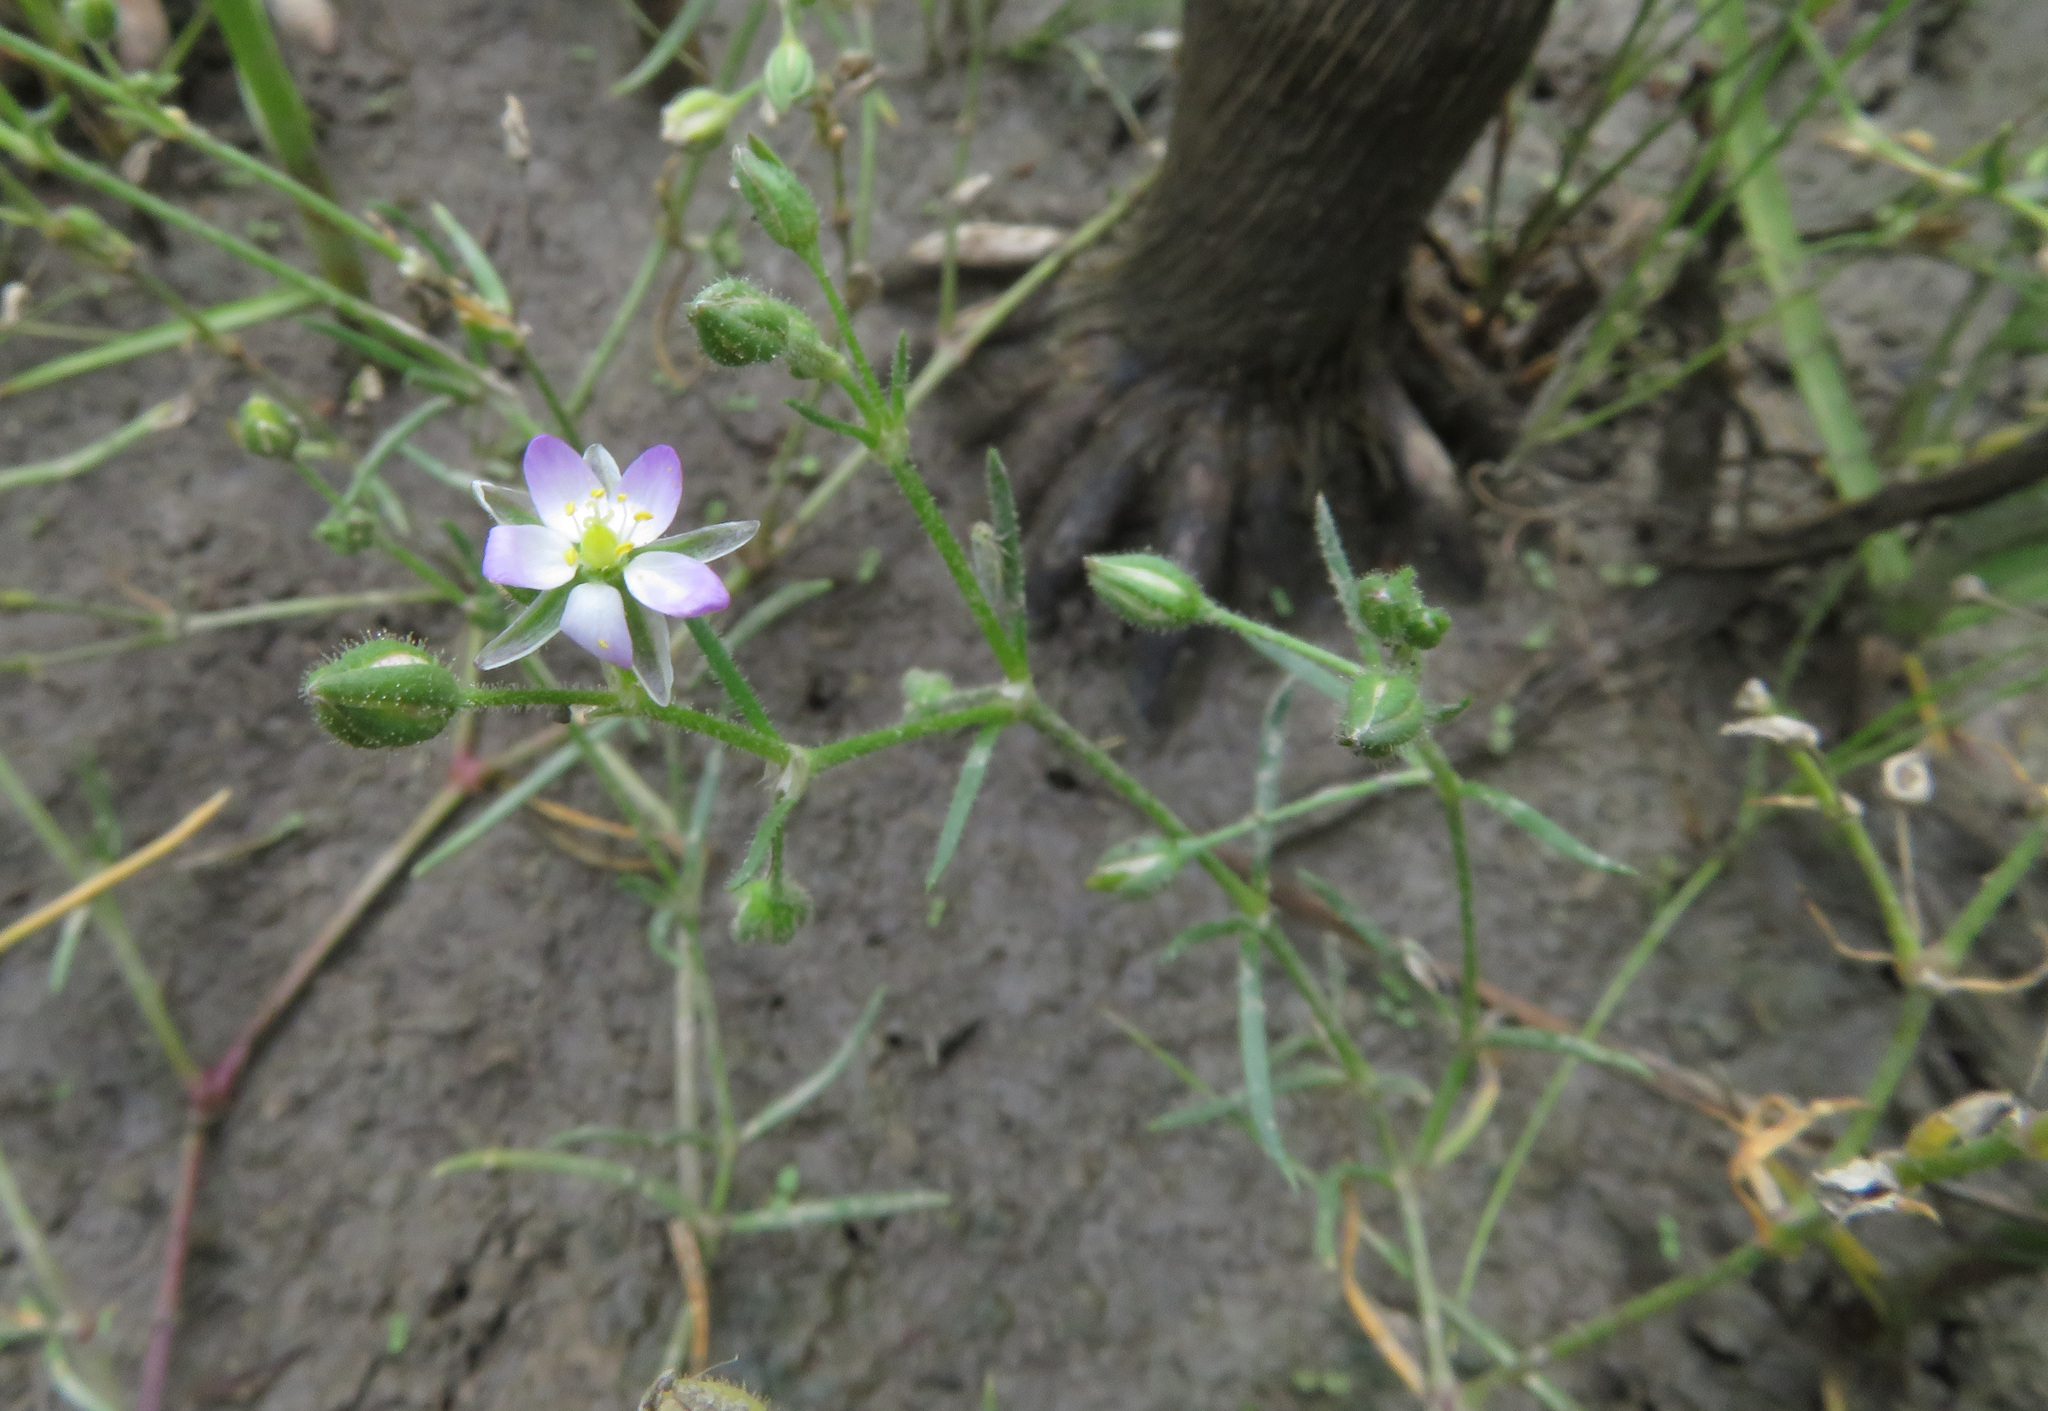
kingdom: Plantae
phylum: Tracheophyta
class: Magnoliopsida
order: Caryophyllales
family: Caryophyllaceae
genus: Spergularia
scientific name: Spergularia marina
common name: Lesser sea-spurrey
